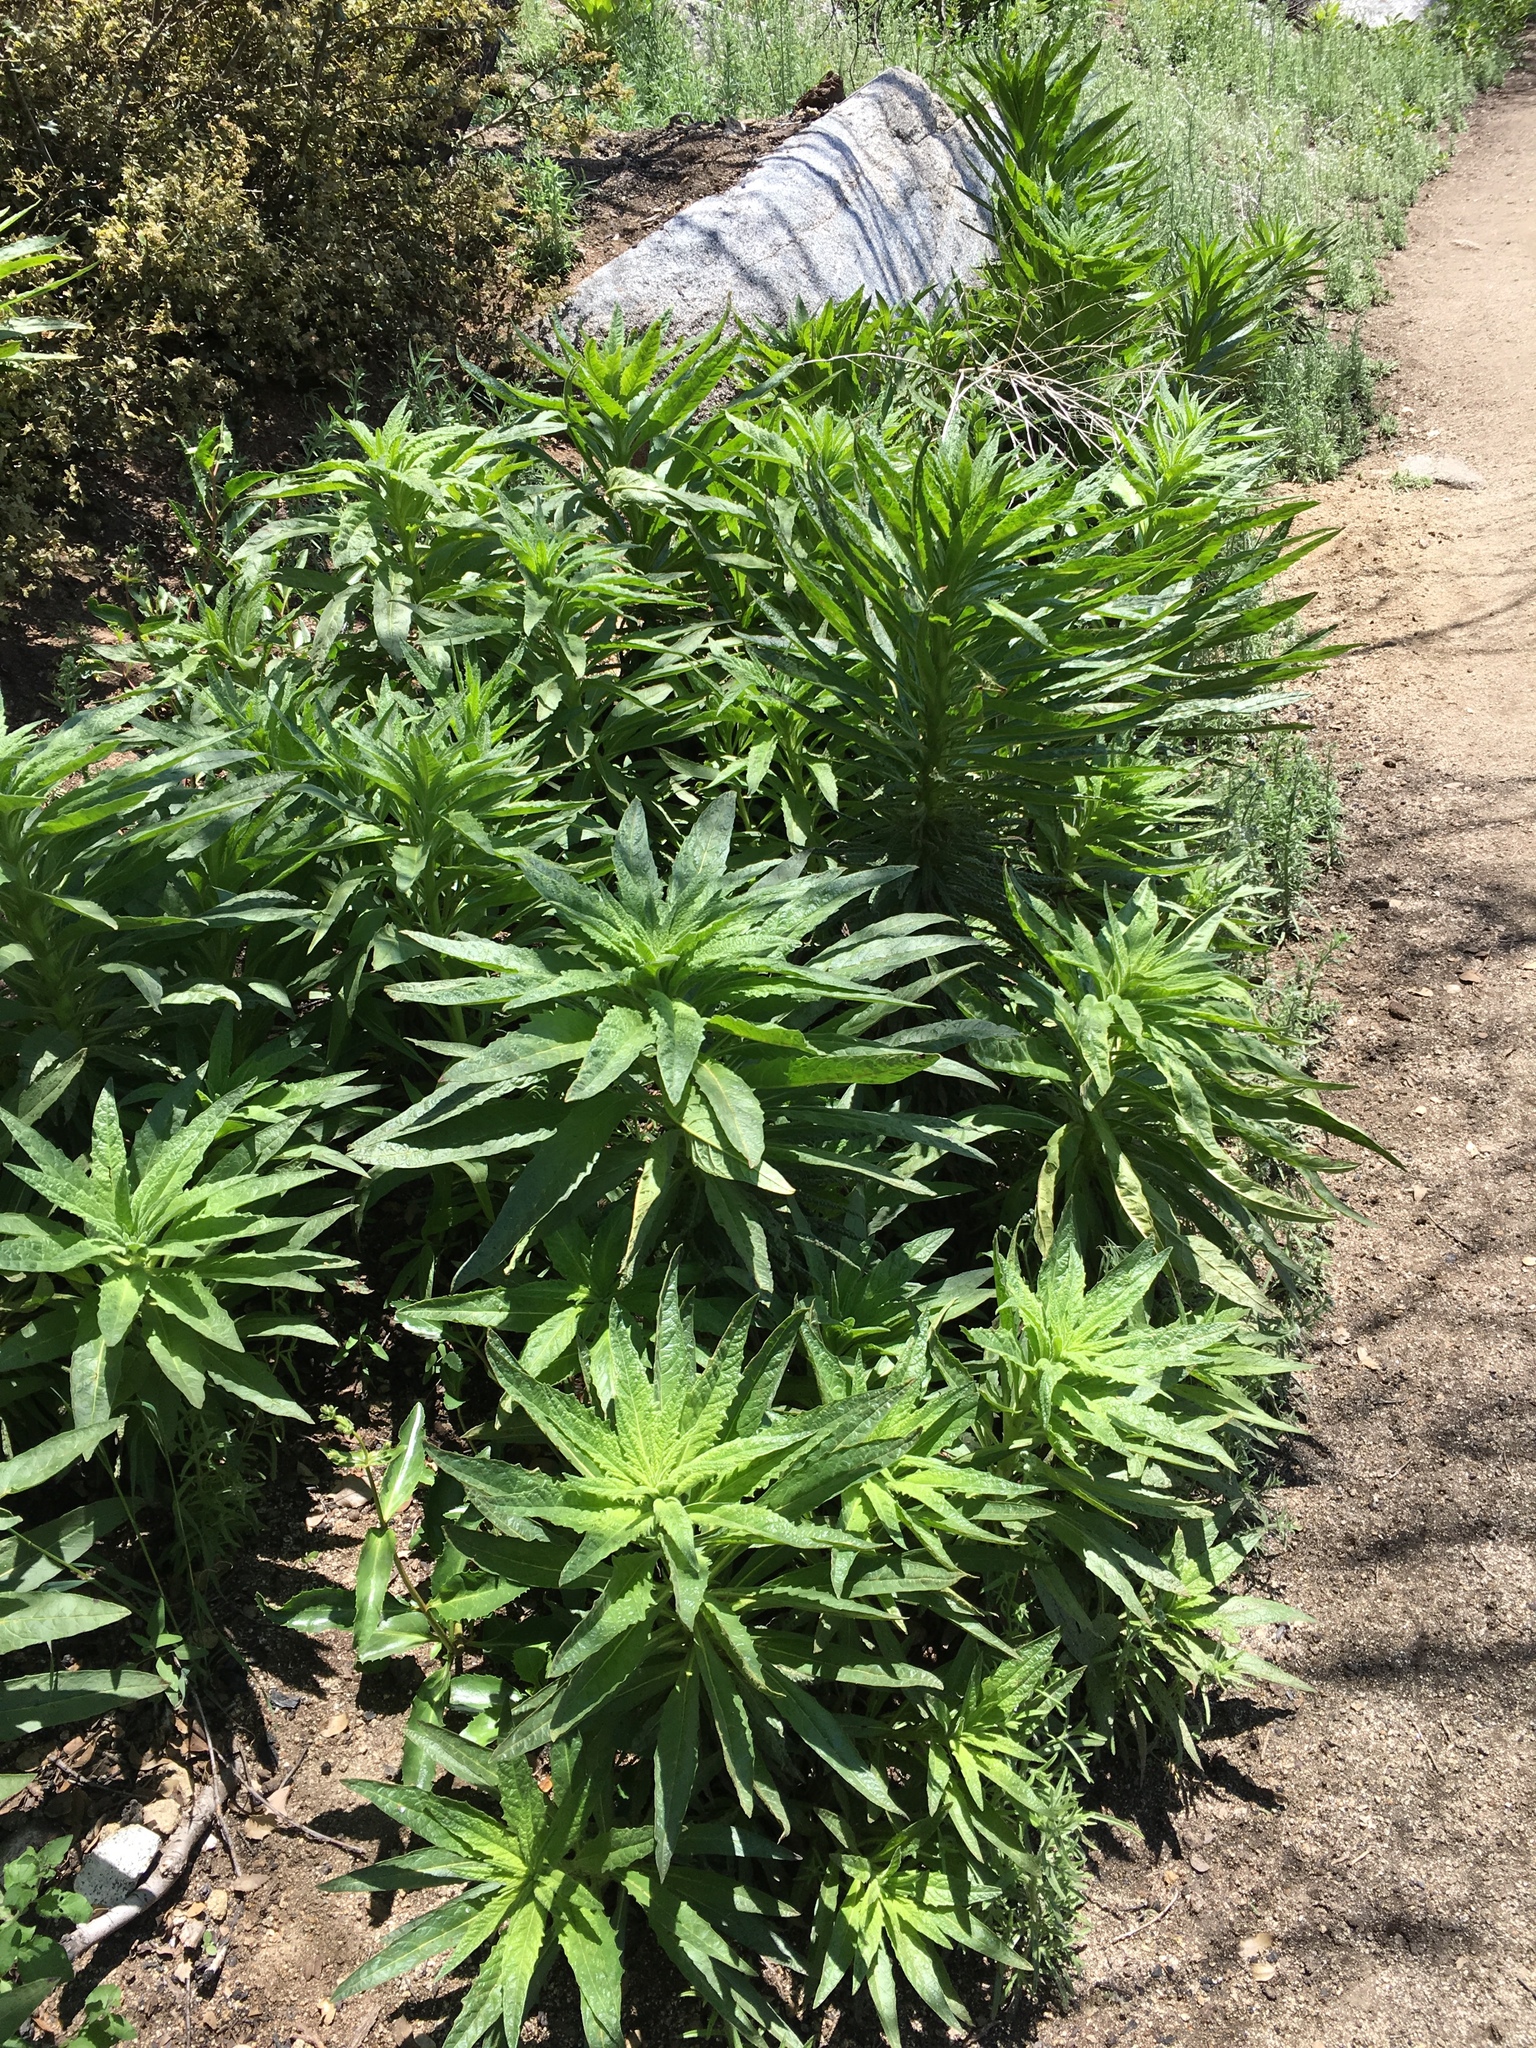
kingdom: Plantae
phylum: Tracheophyta
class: Magnoliopsida
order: Boraginales
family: Namaceae
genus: Turricula
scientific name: Turricula parryi
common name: Poodle-dog-bush
